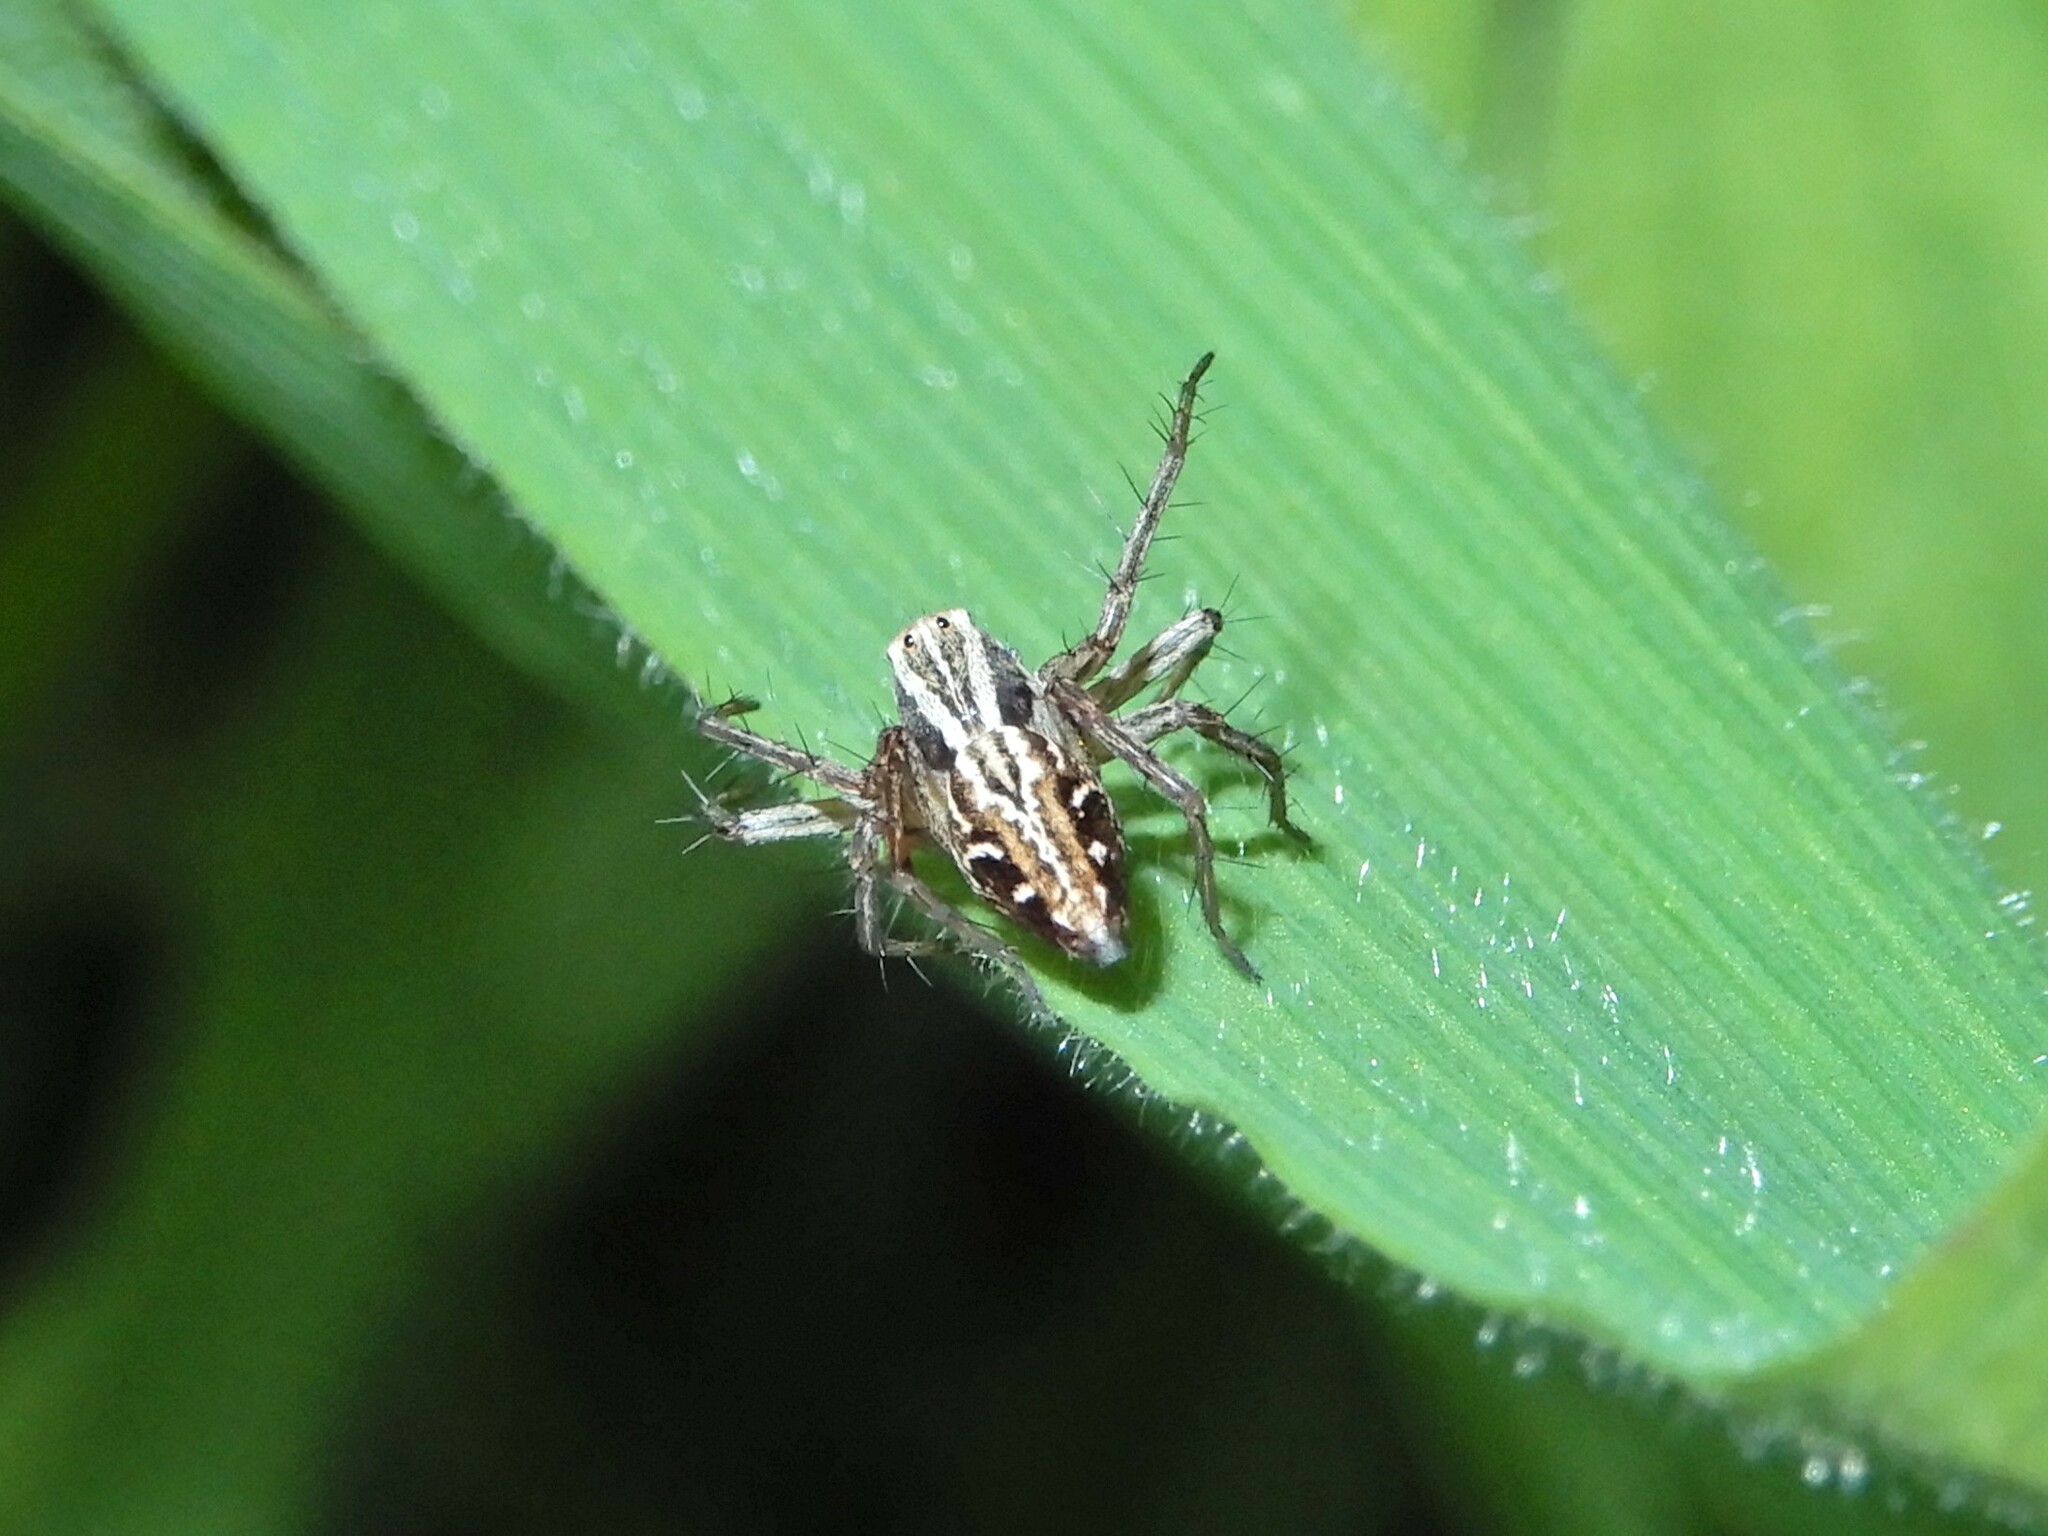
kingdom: Animalia
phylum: Arthropoda
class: Arachnida
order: Araneae
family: Oxyopidae
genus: Oxyopes
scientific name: Oxyopes gracilipes
